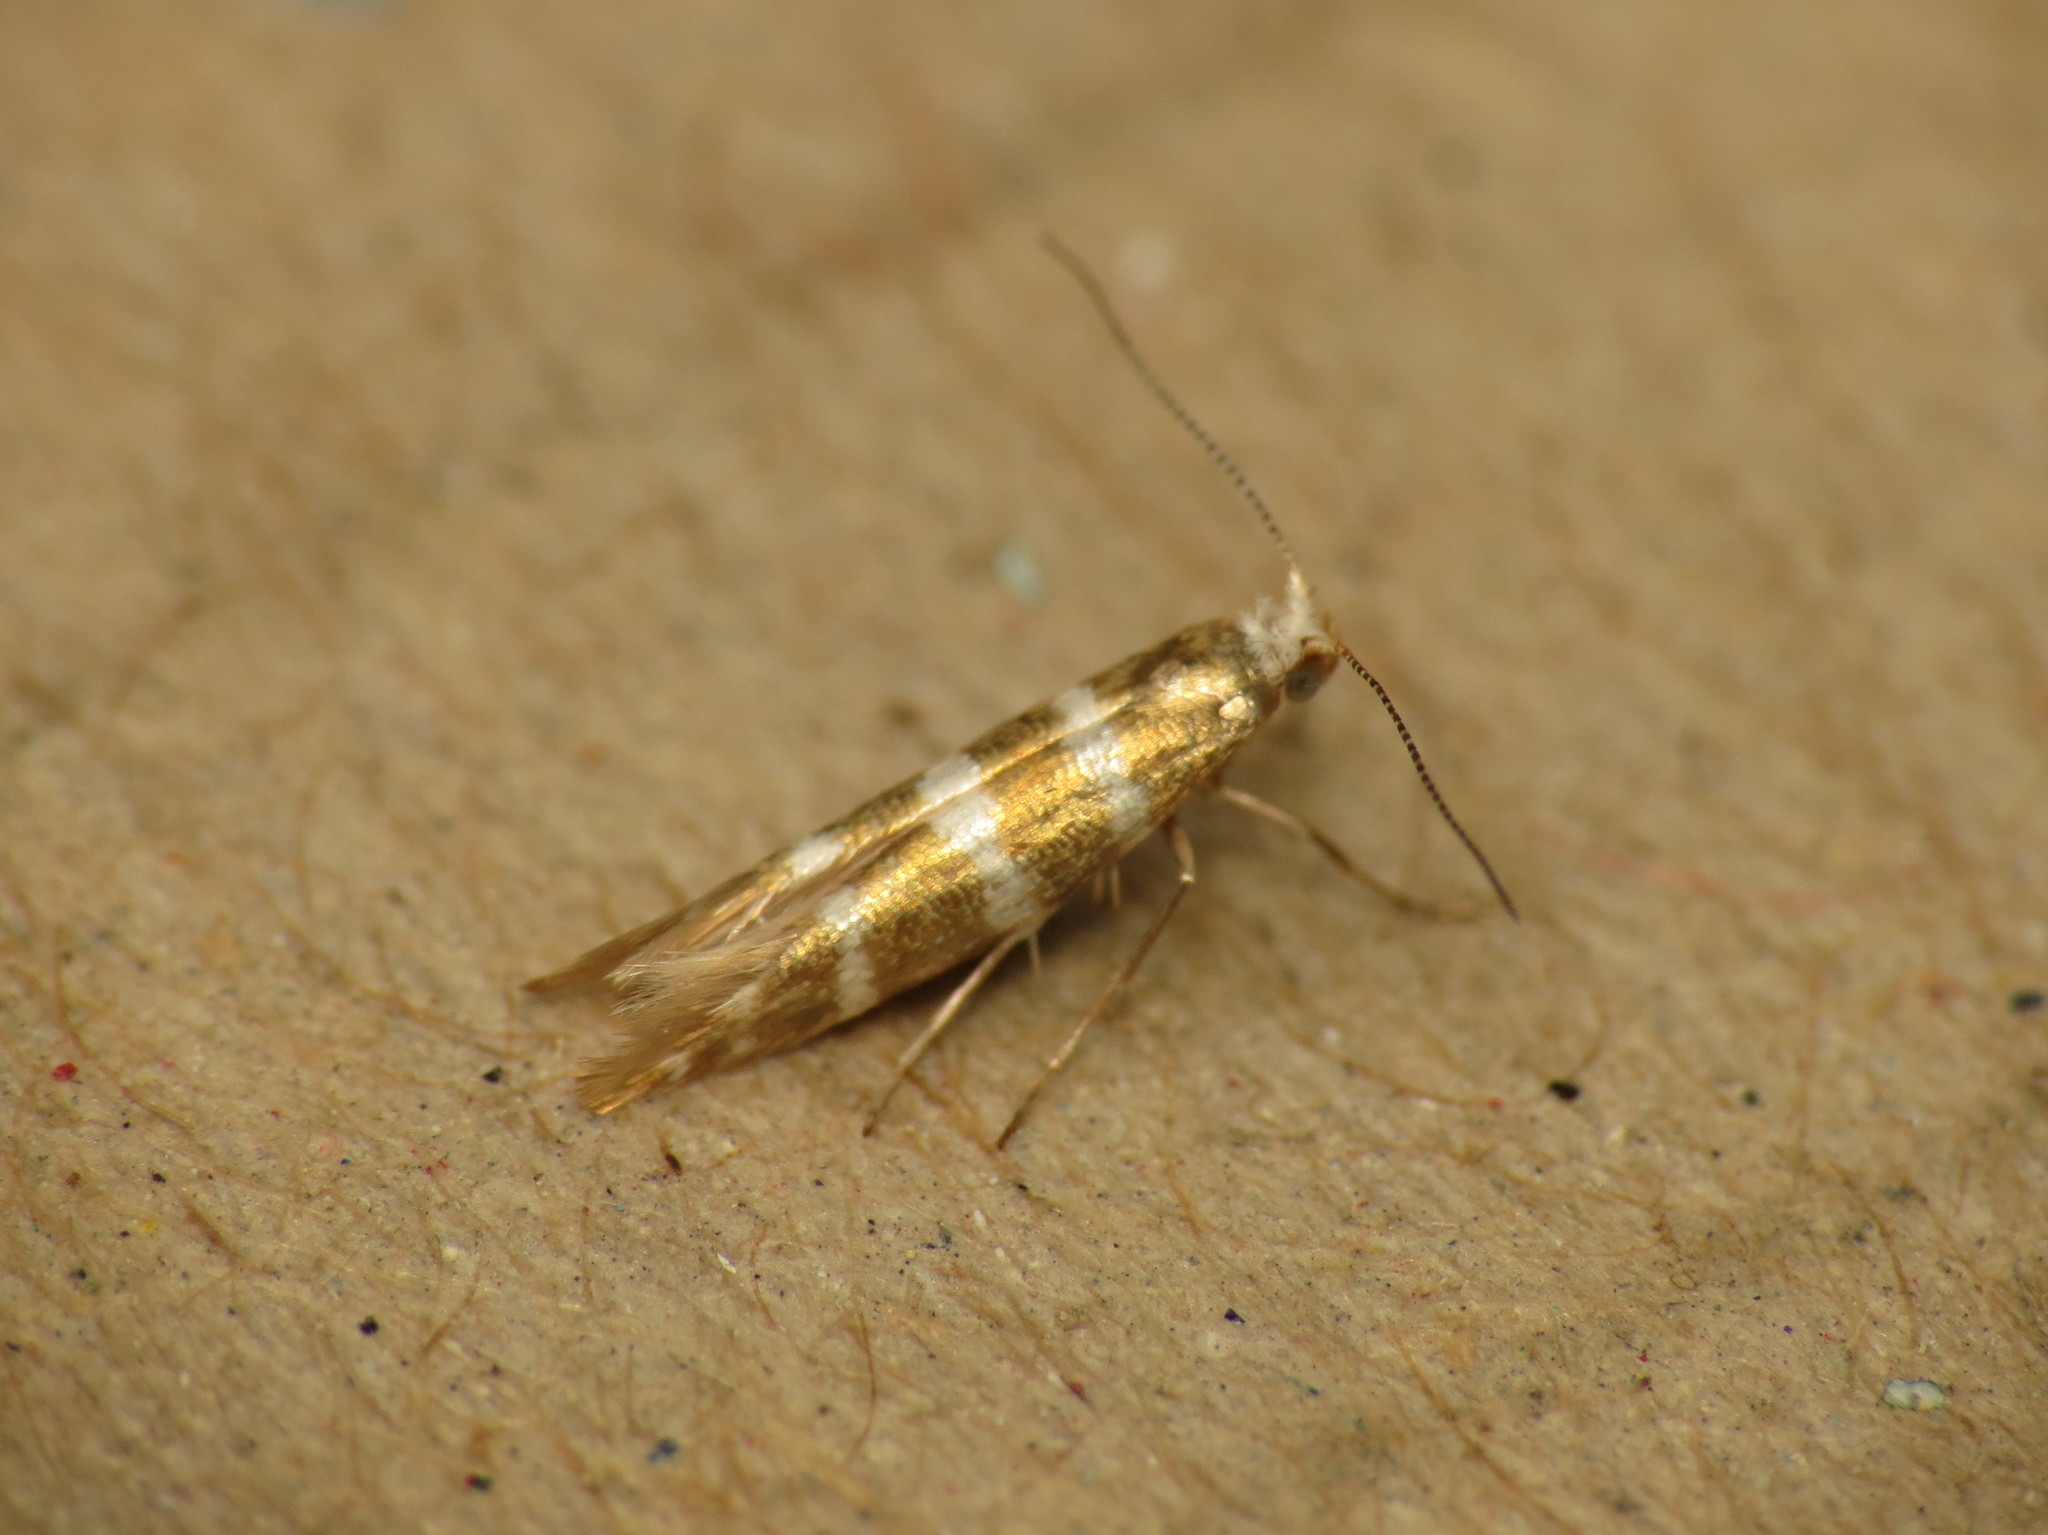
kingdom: Animalia
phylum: Arthropoda
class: Insecta
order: Lepidoptera
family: Argyresthiidae
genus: Argyresthia
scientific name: Argyresthia trifasciata
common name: Triple-barred argent
